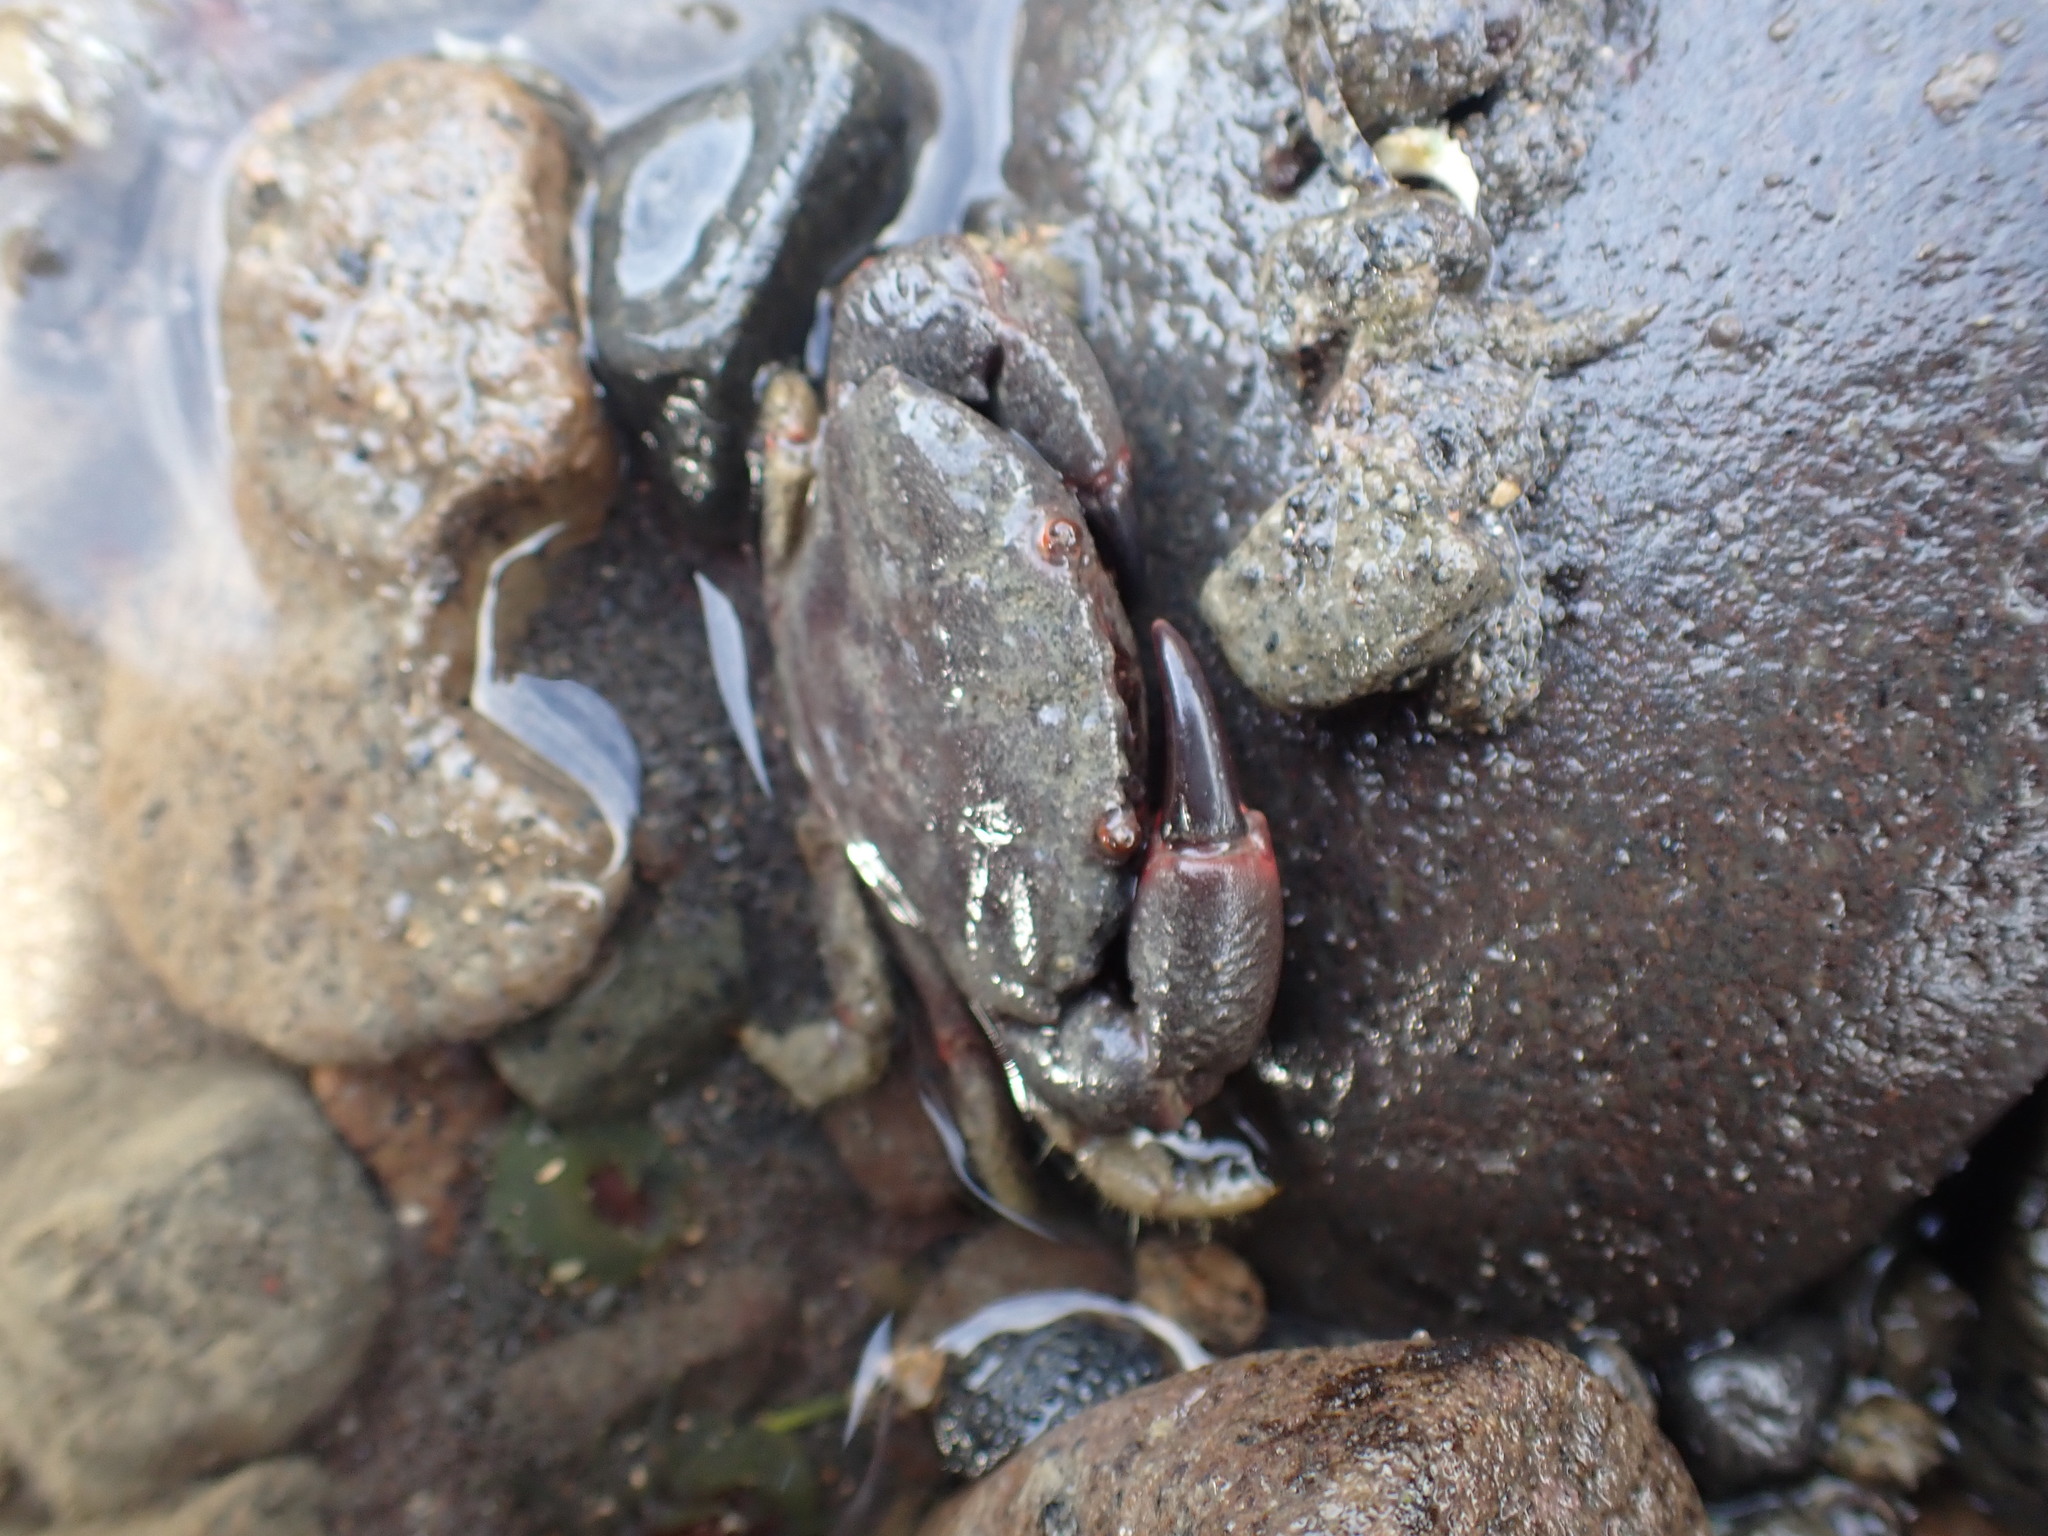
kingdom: Animalia
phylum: Arthropoda
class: Malacostraca
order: Decapoda
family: Oziidae
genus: Ozius
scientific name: Ozius deplanatus
